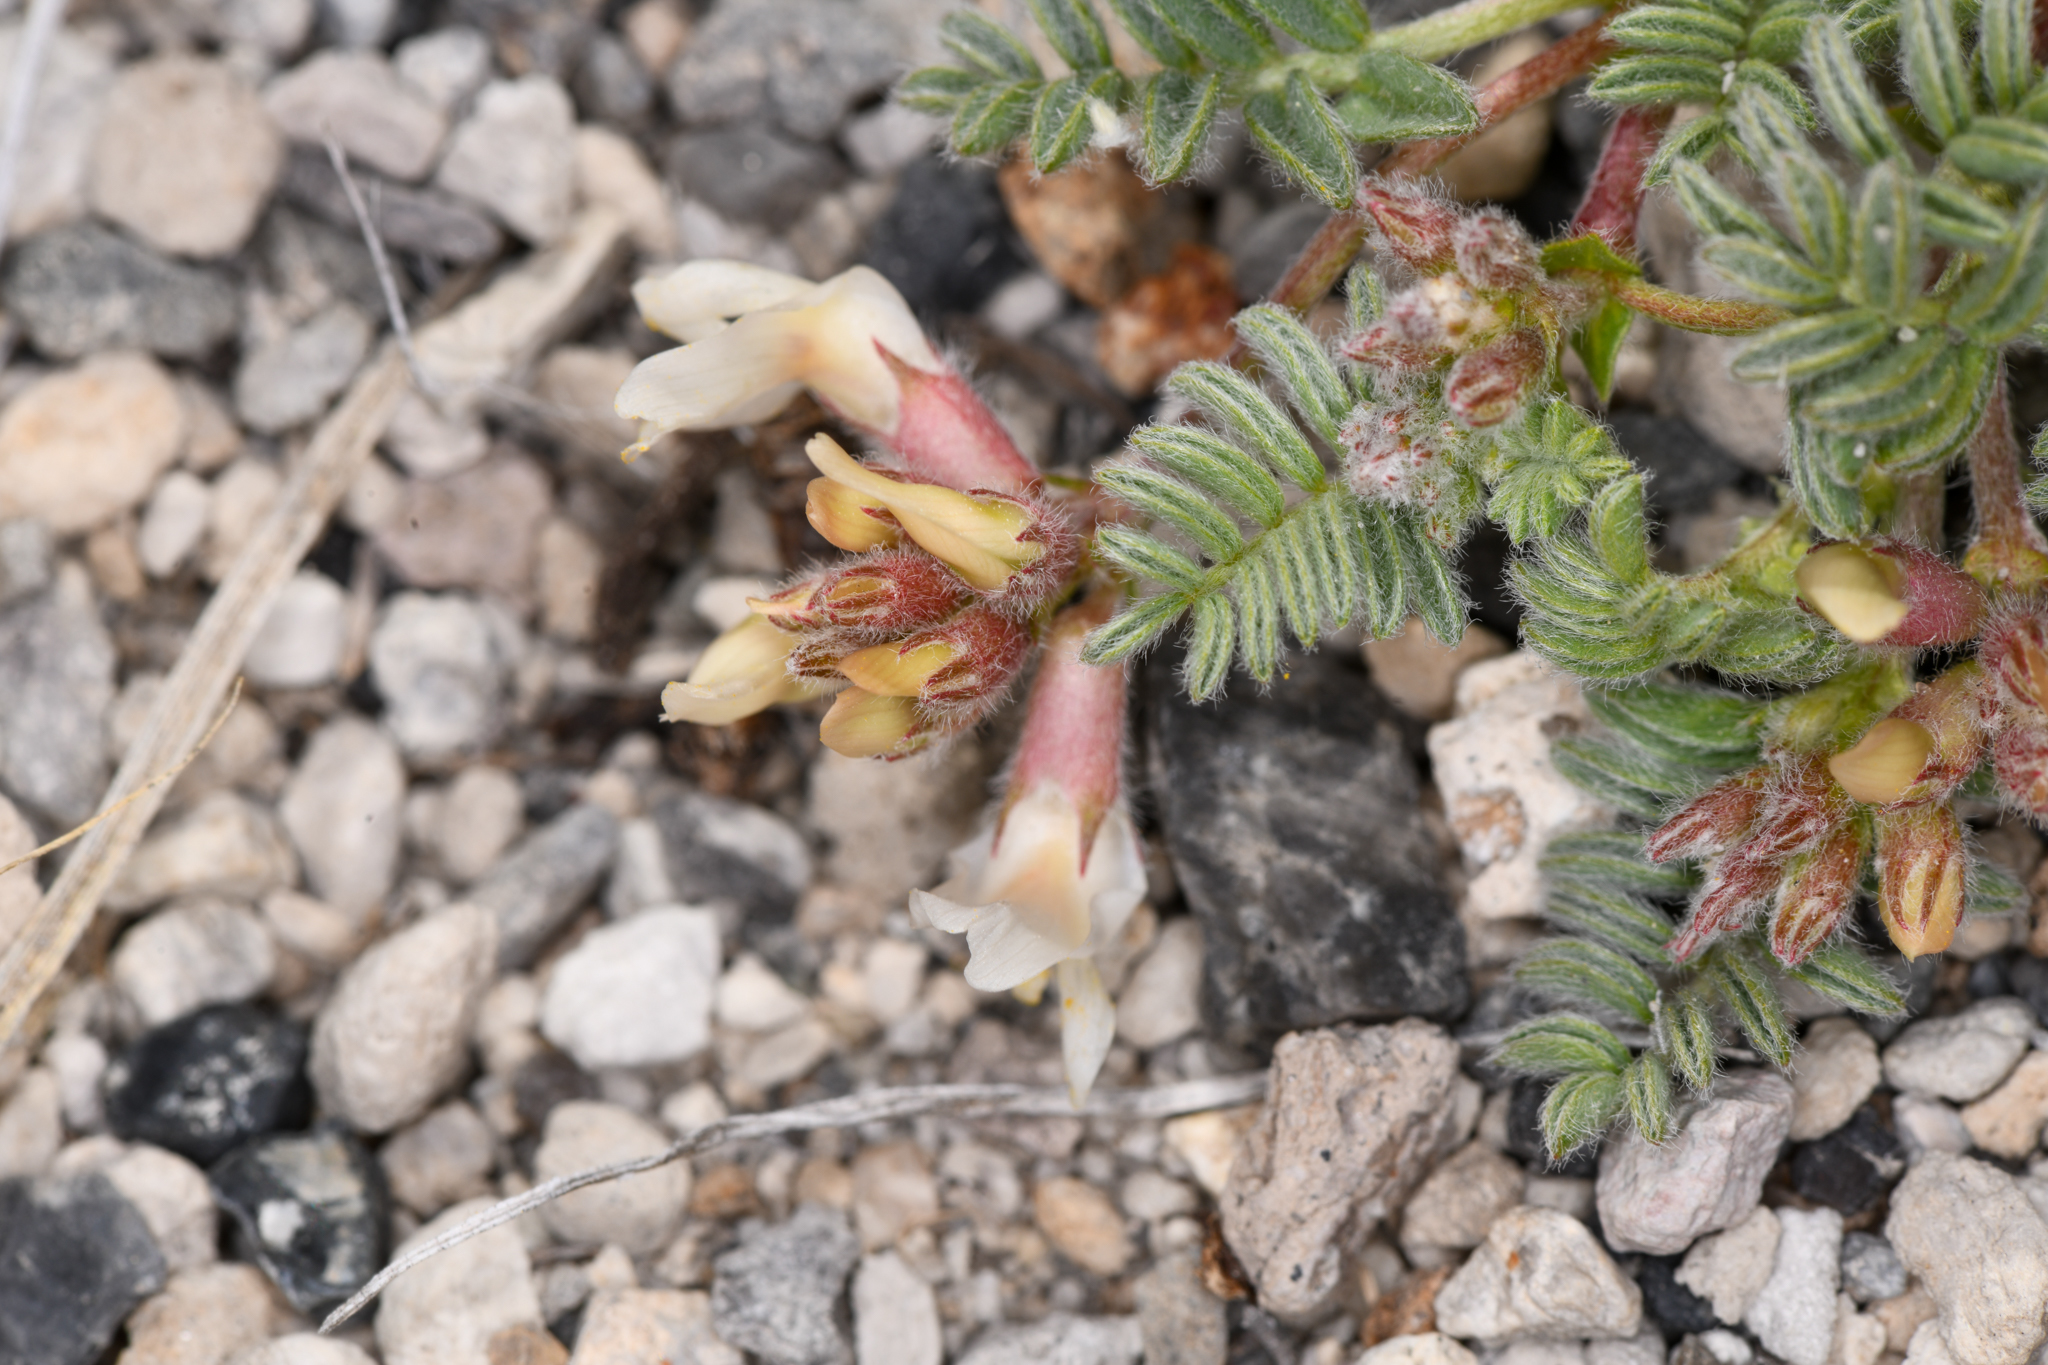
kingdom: Plantae
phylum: Tracheophyta
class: Magnoliopsida
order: Fabales
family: Fabaceae
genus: Astragalus
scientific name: Astragalus monoensis
